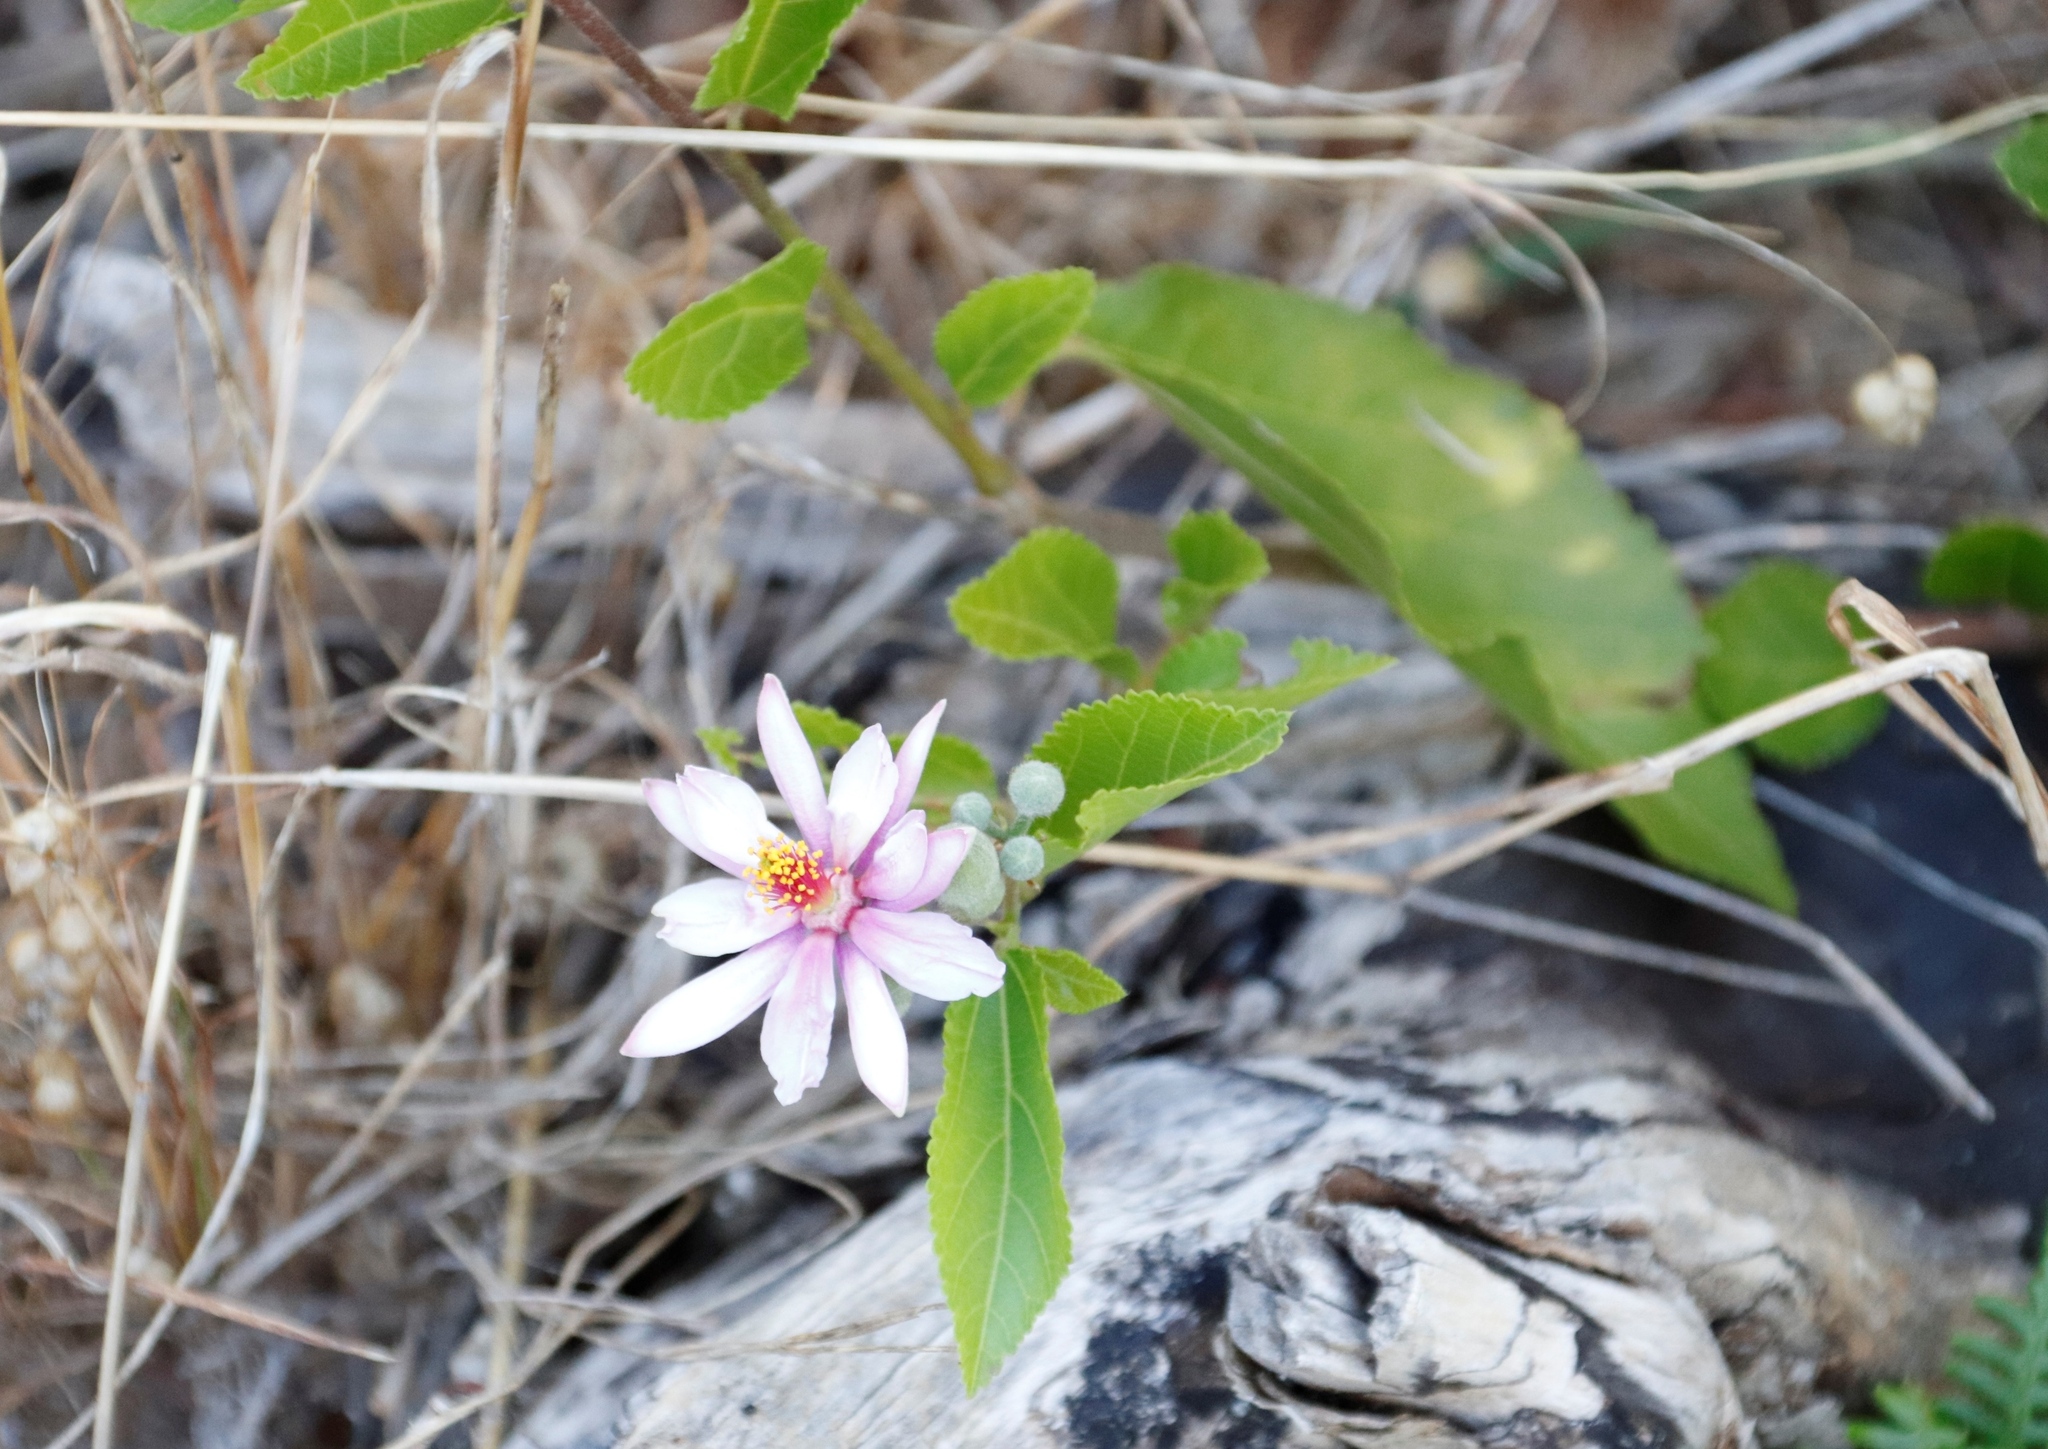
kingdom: Plantae
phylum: Tracheophyta
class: Magnoliopsida
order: Malvales
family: Malvaceae
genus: Grewia
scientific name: Grewia occidentalis
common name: Crossberry
